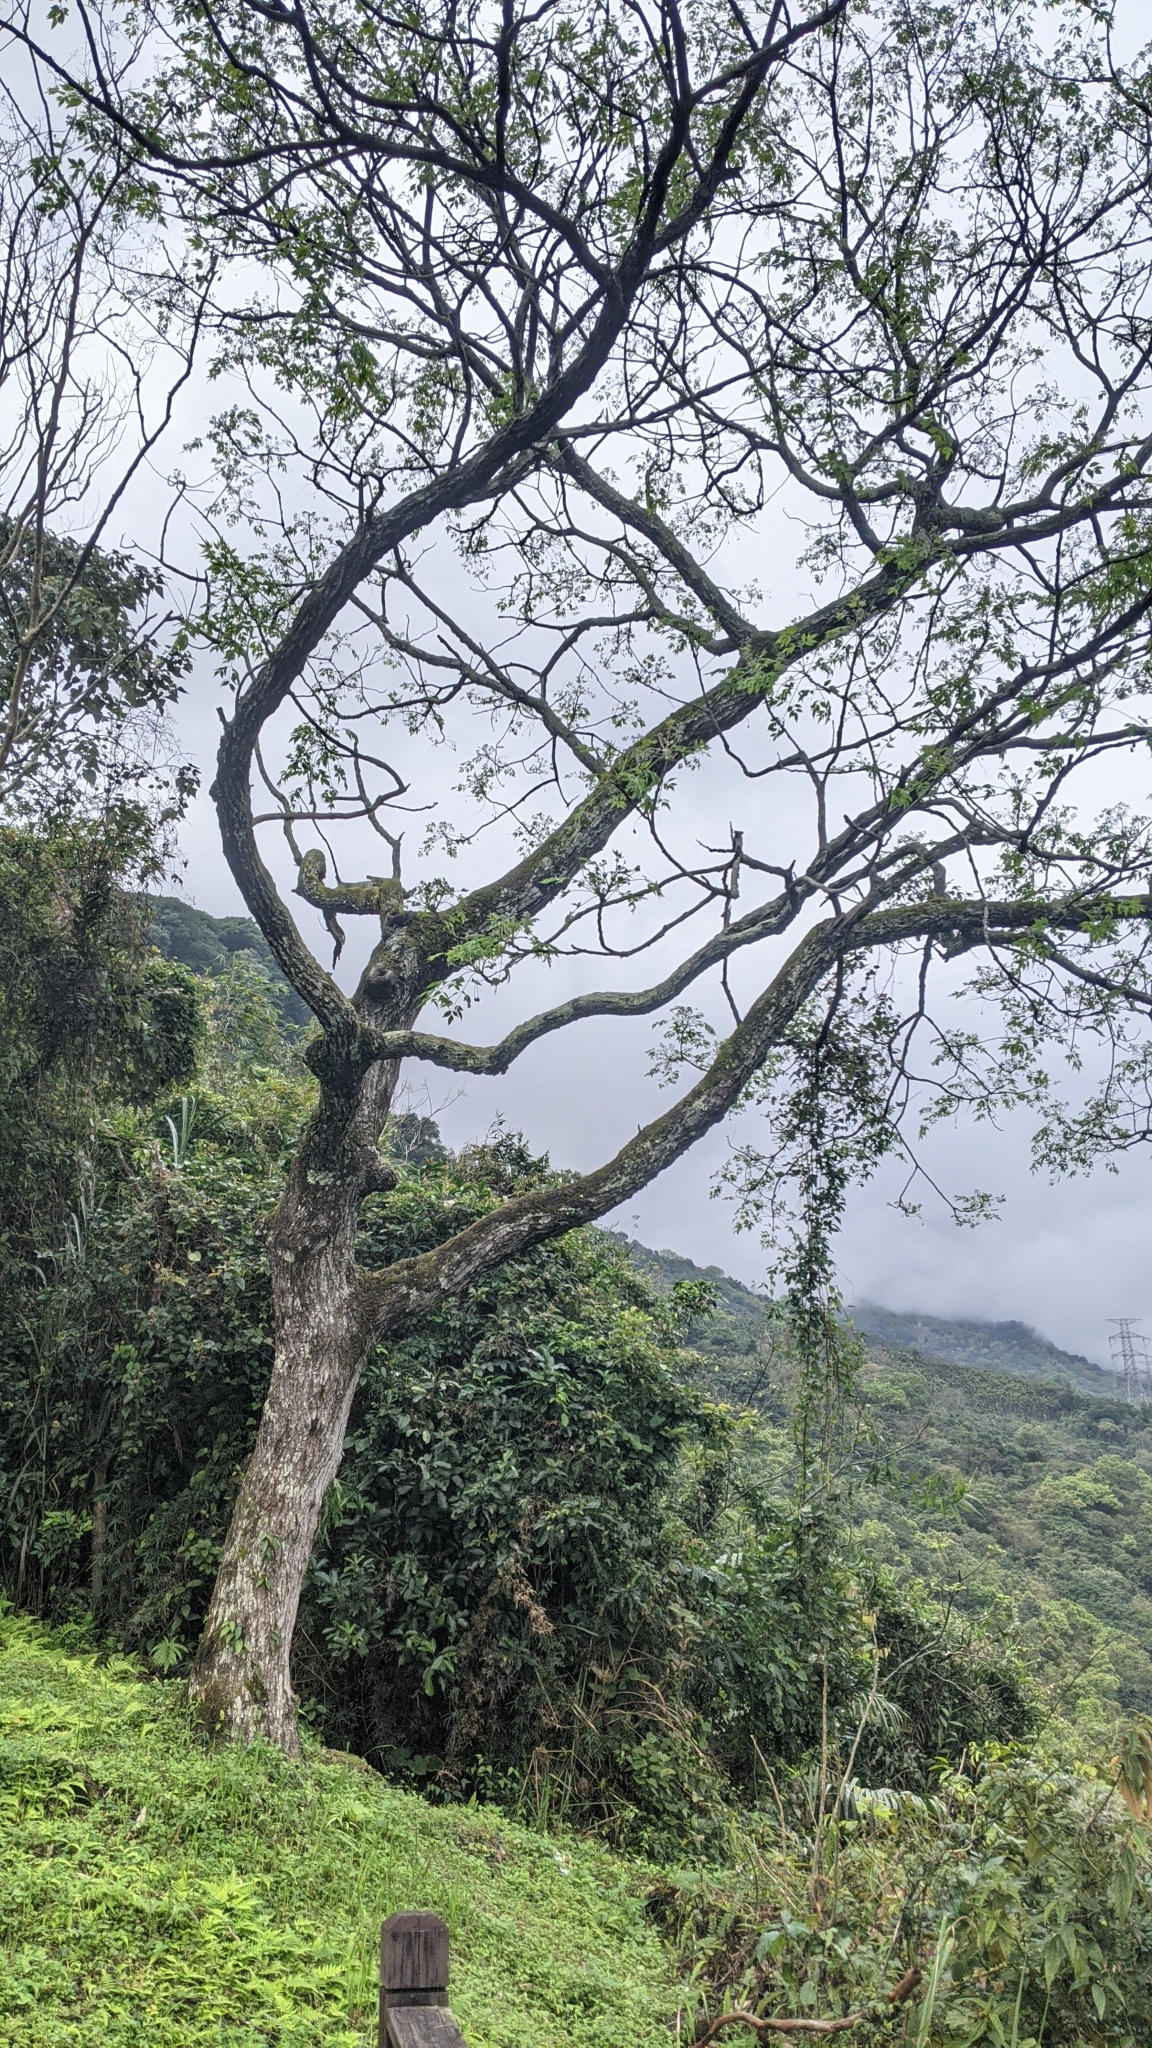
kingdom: Plantae
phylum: Tracheophyta
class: Magnoliopsida
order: Sapindales
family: Meliaceae
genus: Melia
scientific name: Melia azedarach
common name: Chinaberrytree
